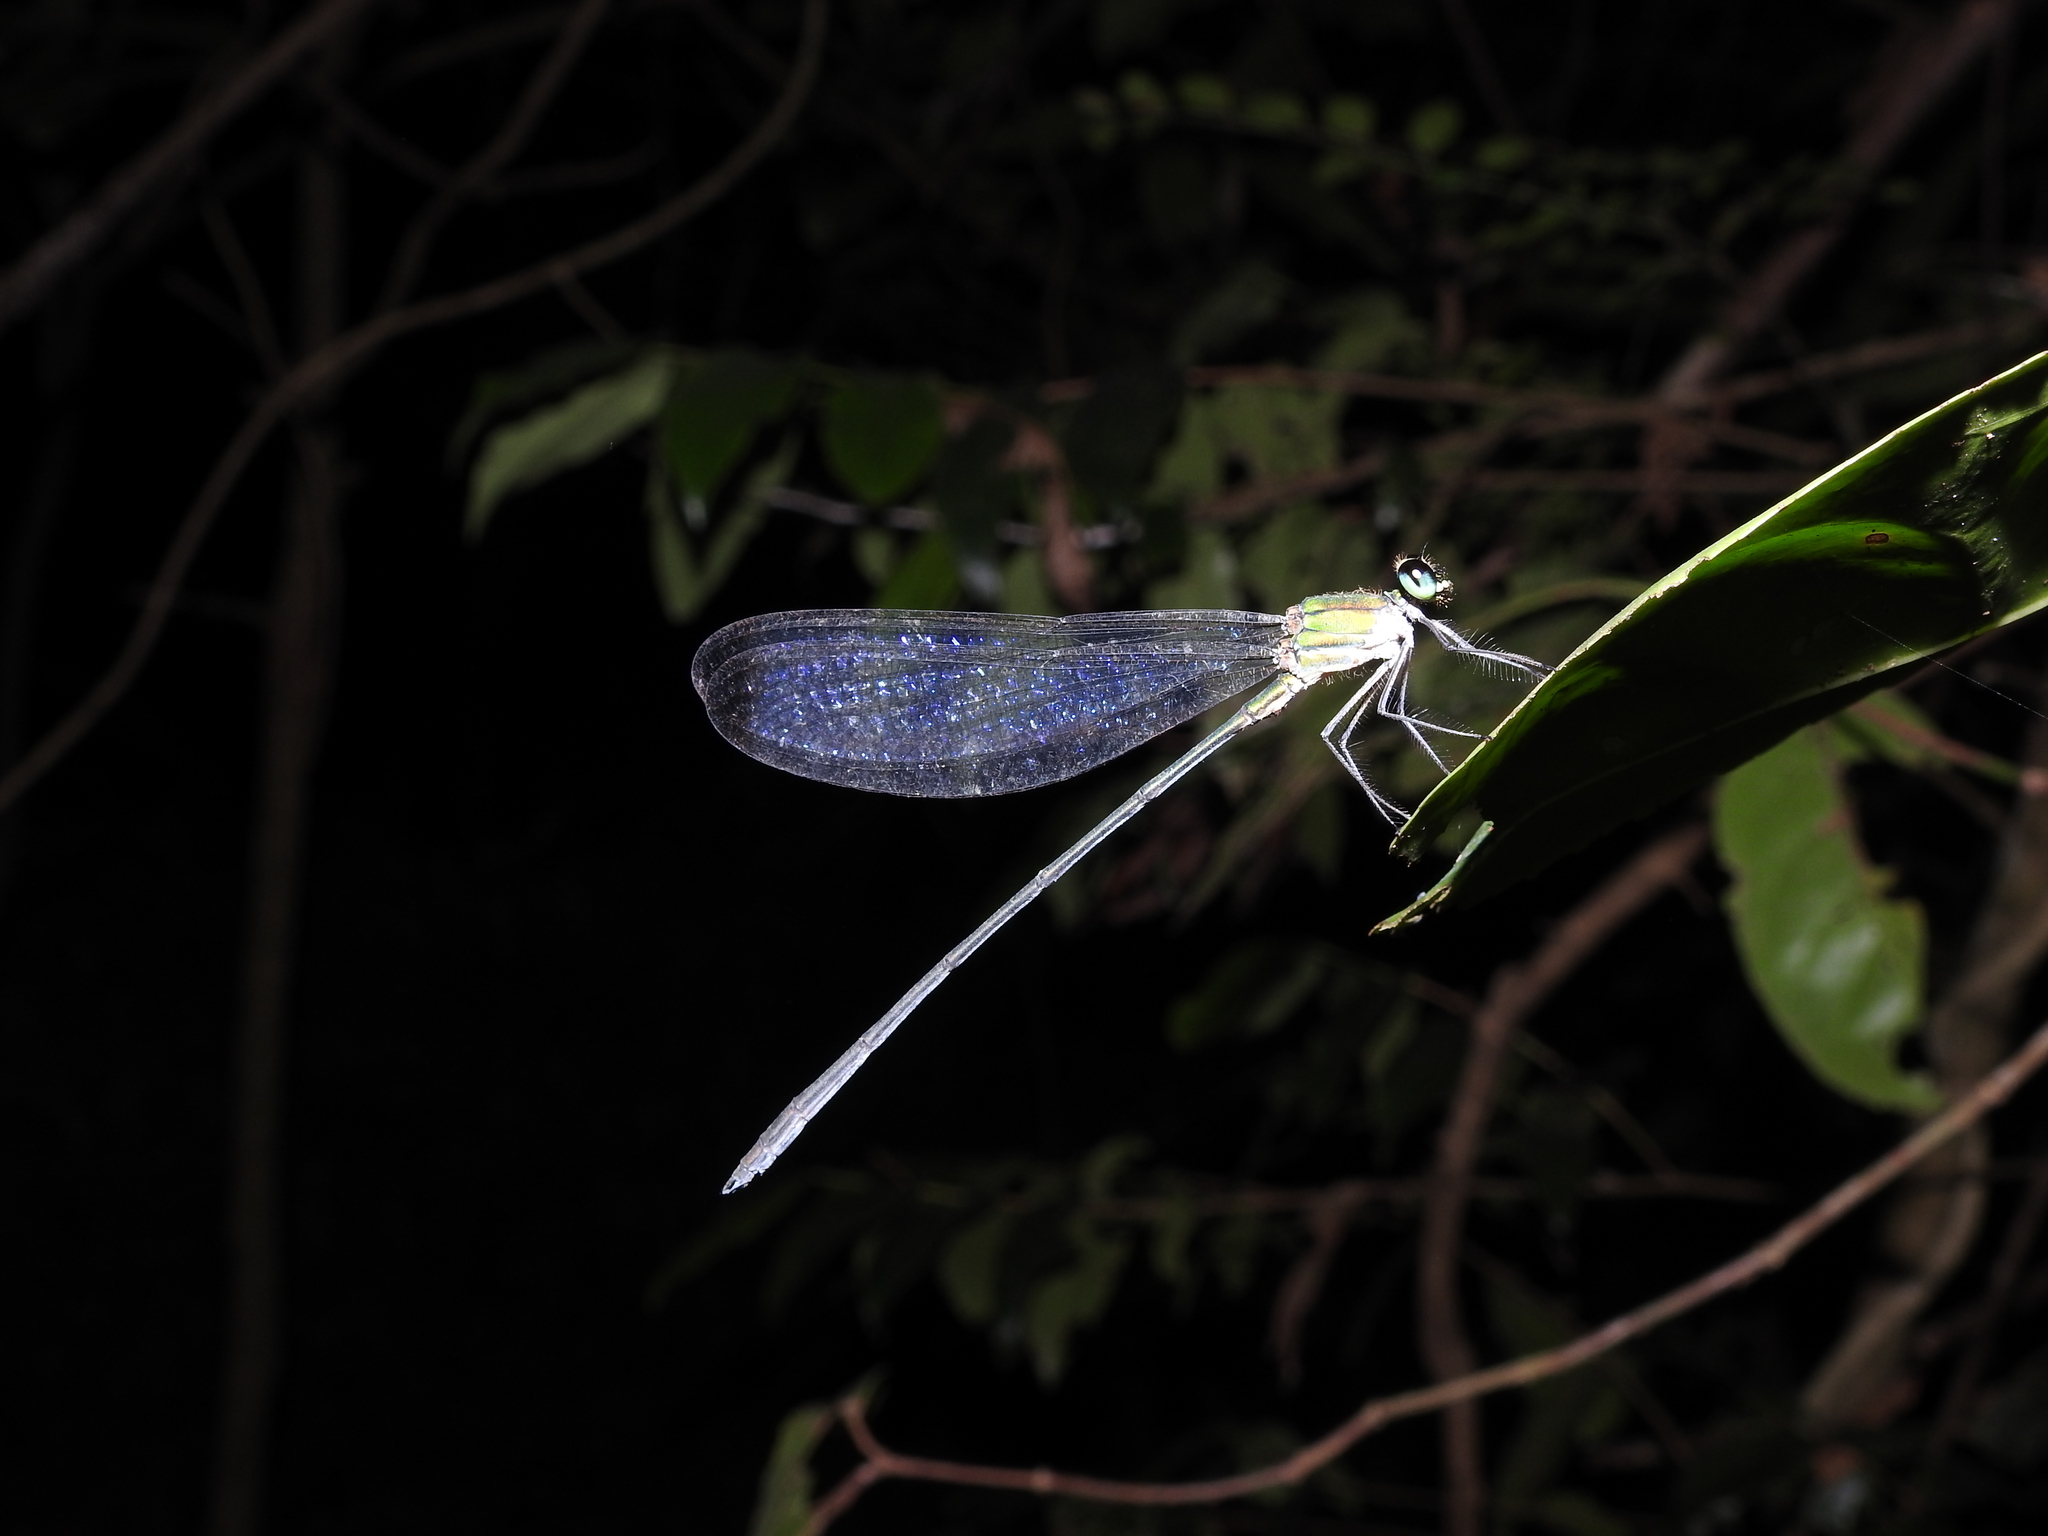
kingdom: Animalia
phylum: Arthropoda
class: Insecta
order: Odonata
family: Calopterygidae
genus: Vestalis
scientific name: Vestalis submontana
